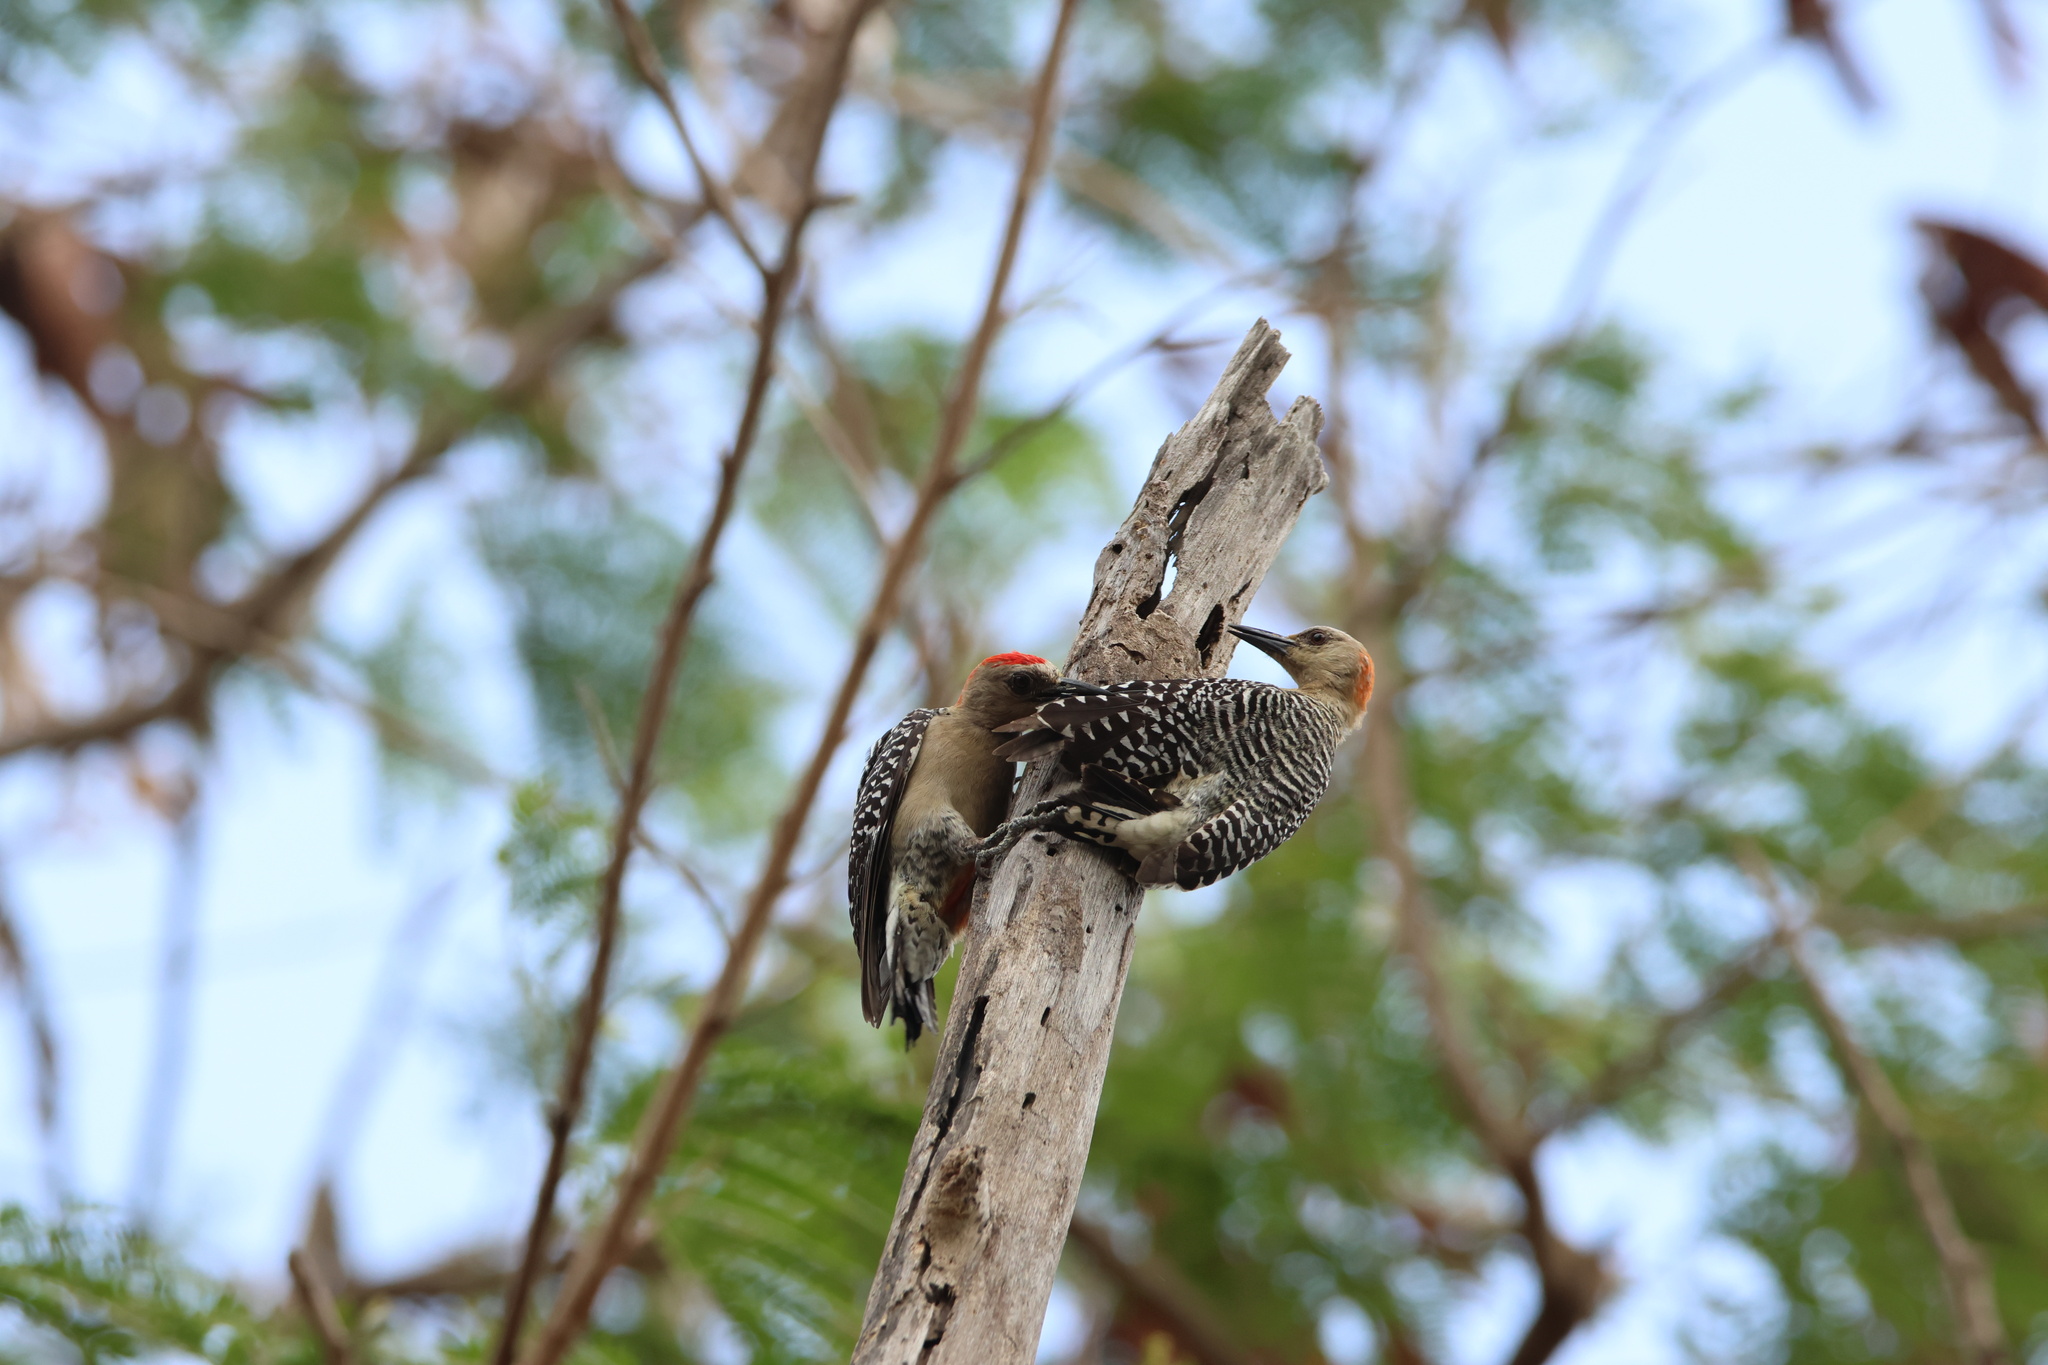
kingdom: Animalia
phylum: Chordata
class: Aves
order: Piciformes
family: Picidae
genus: Melanerpes
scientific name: Melanerpes rubricapillus
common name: Red-crowned woodpecker
